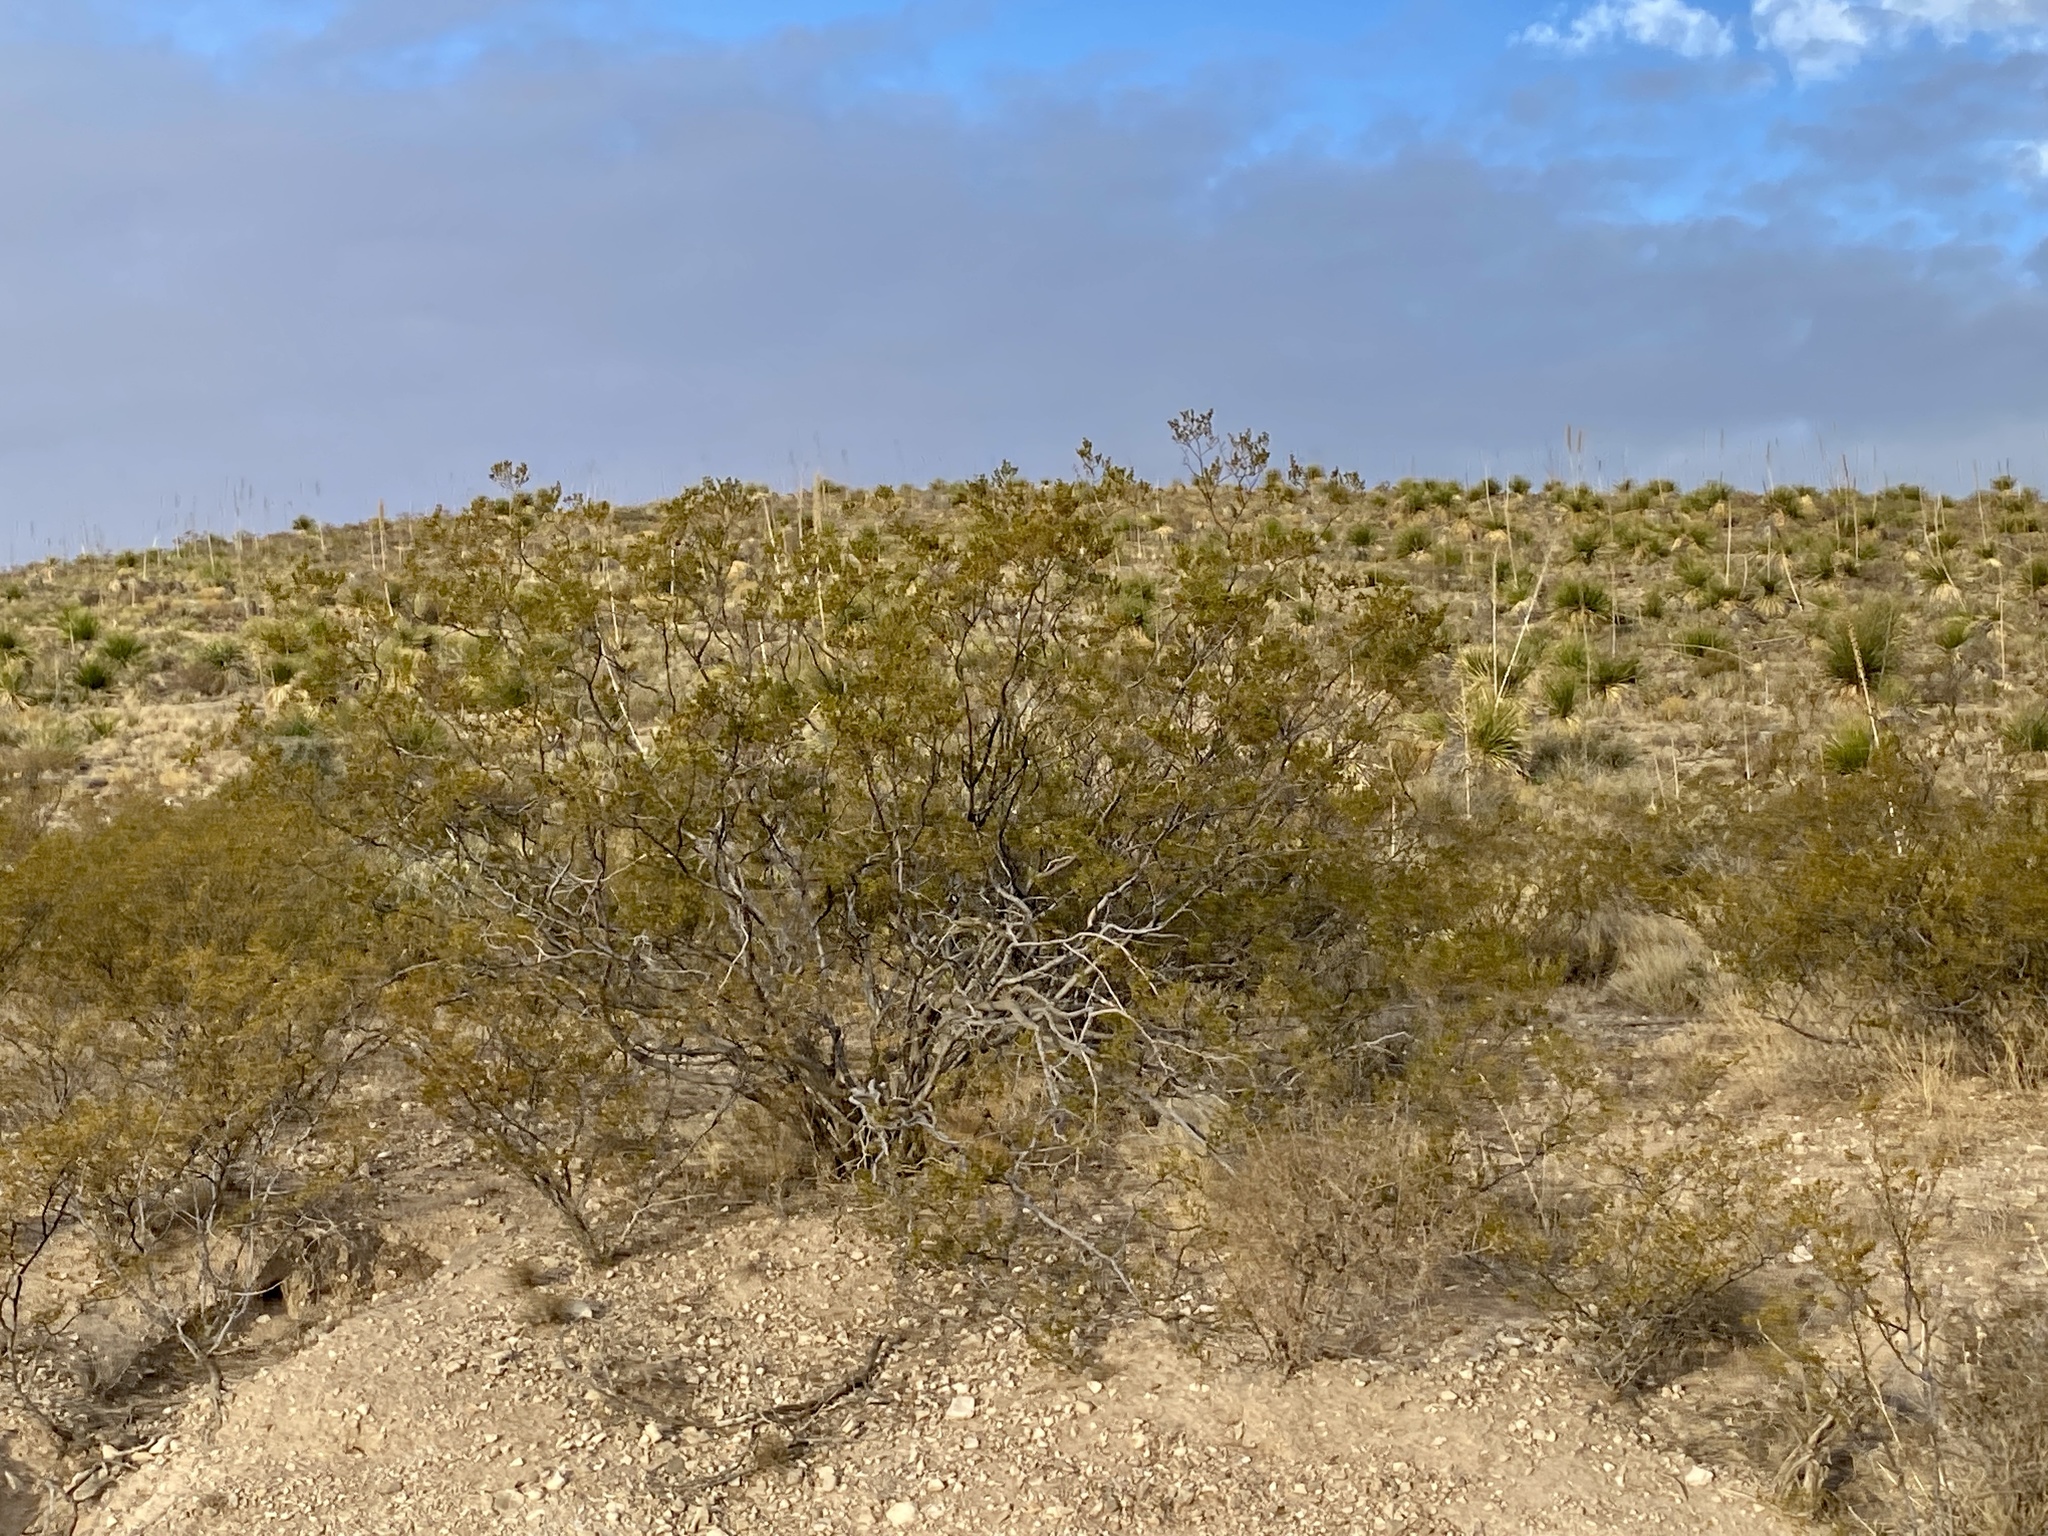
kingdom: Plantae
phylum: Tracheophyta
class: Magnoliopsida
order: Zygophyllales
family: Zygophyllaceae
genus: Larrea
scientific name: Larrea tridentata
